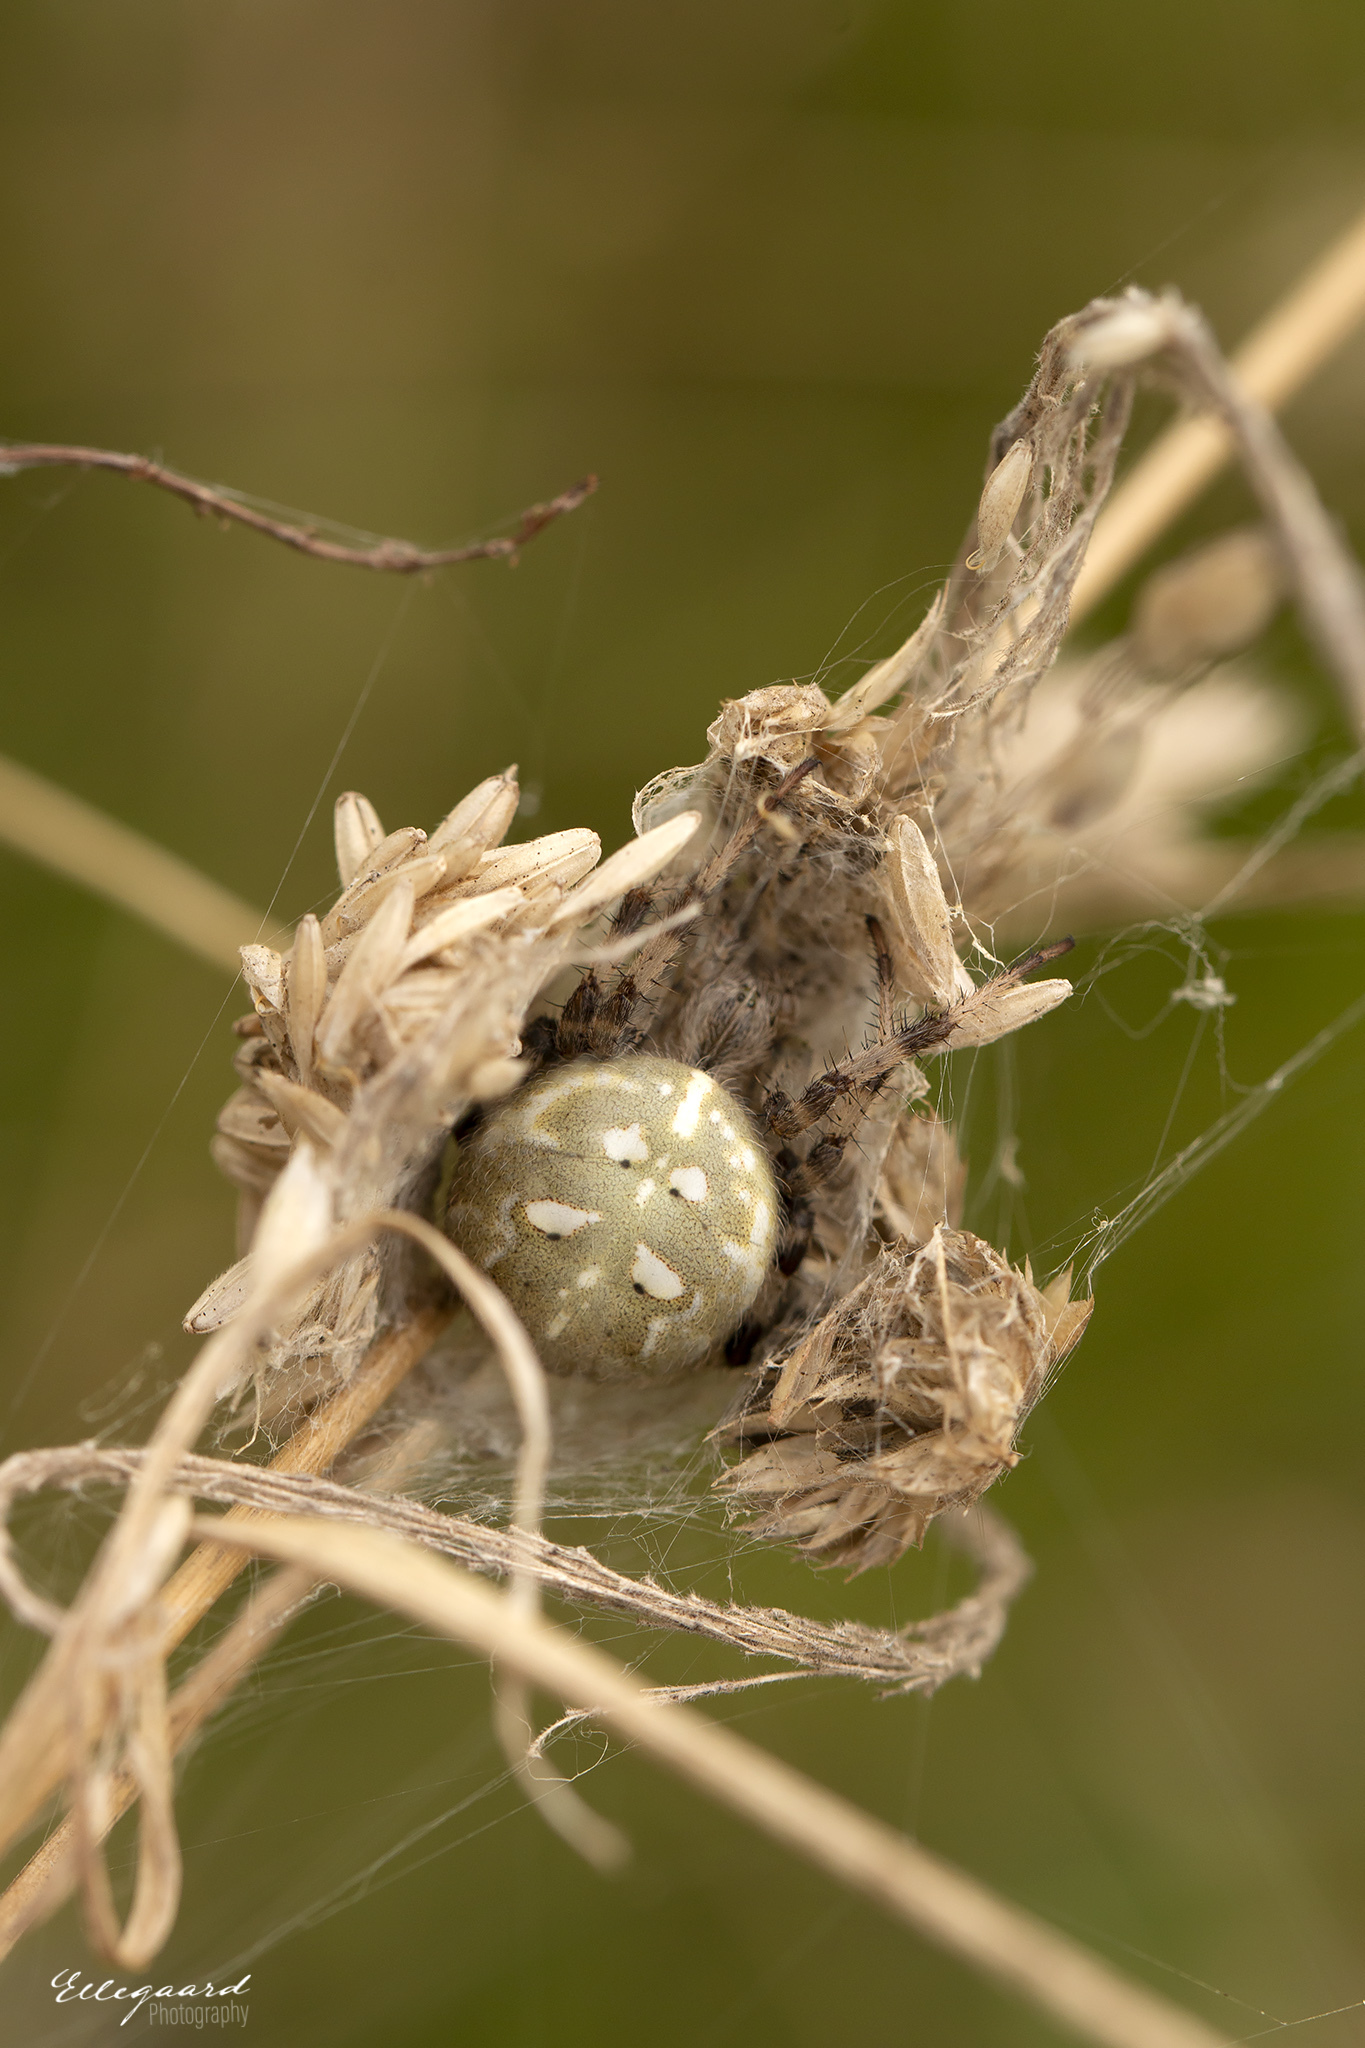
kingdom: Animalia
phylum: Arthropoda
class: Arachnida
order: Araneae
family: Araneidae
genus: Araneus
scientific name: Araneus quadratus
